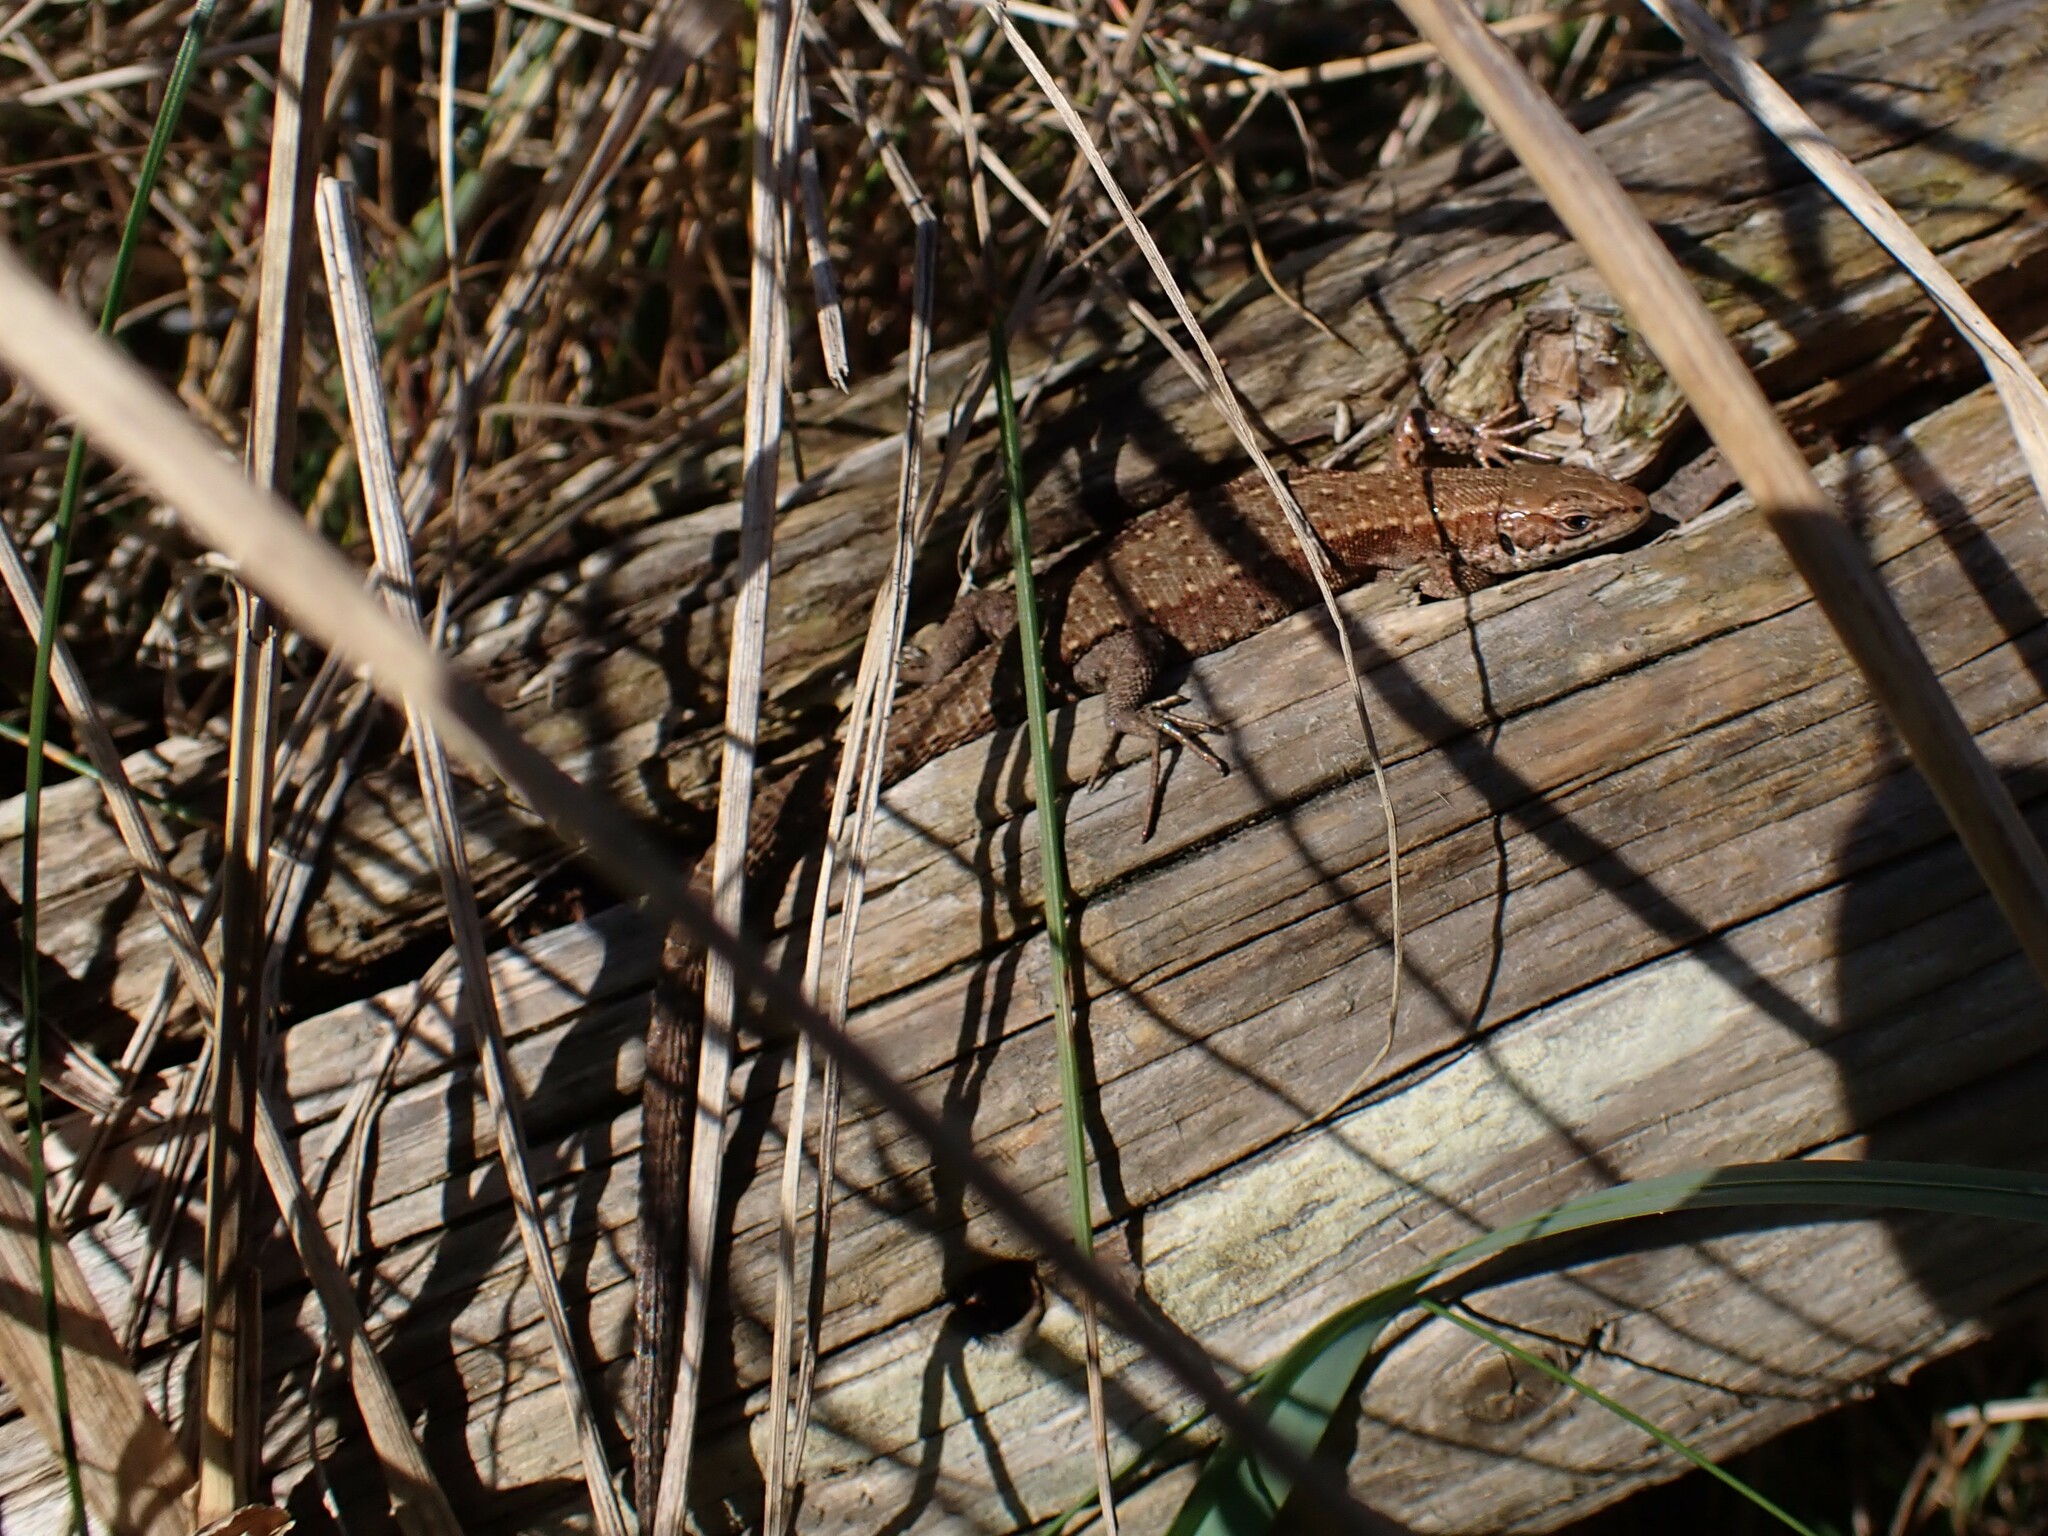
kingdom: Animalia
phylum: Chordata
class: Squamata
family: Lacertidae
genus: Zootoca
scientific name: Zootoca vivipara
